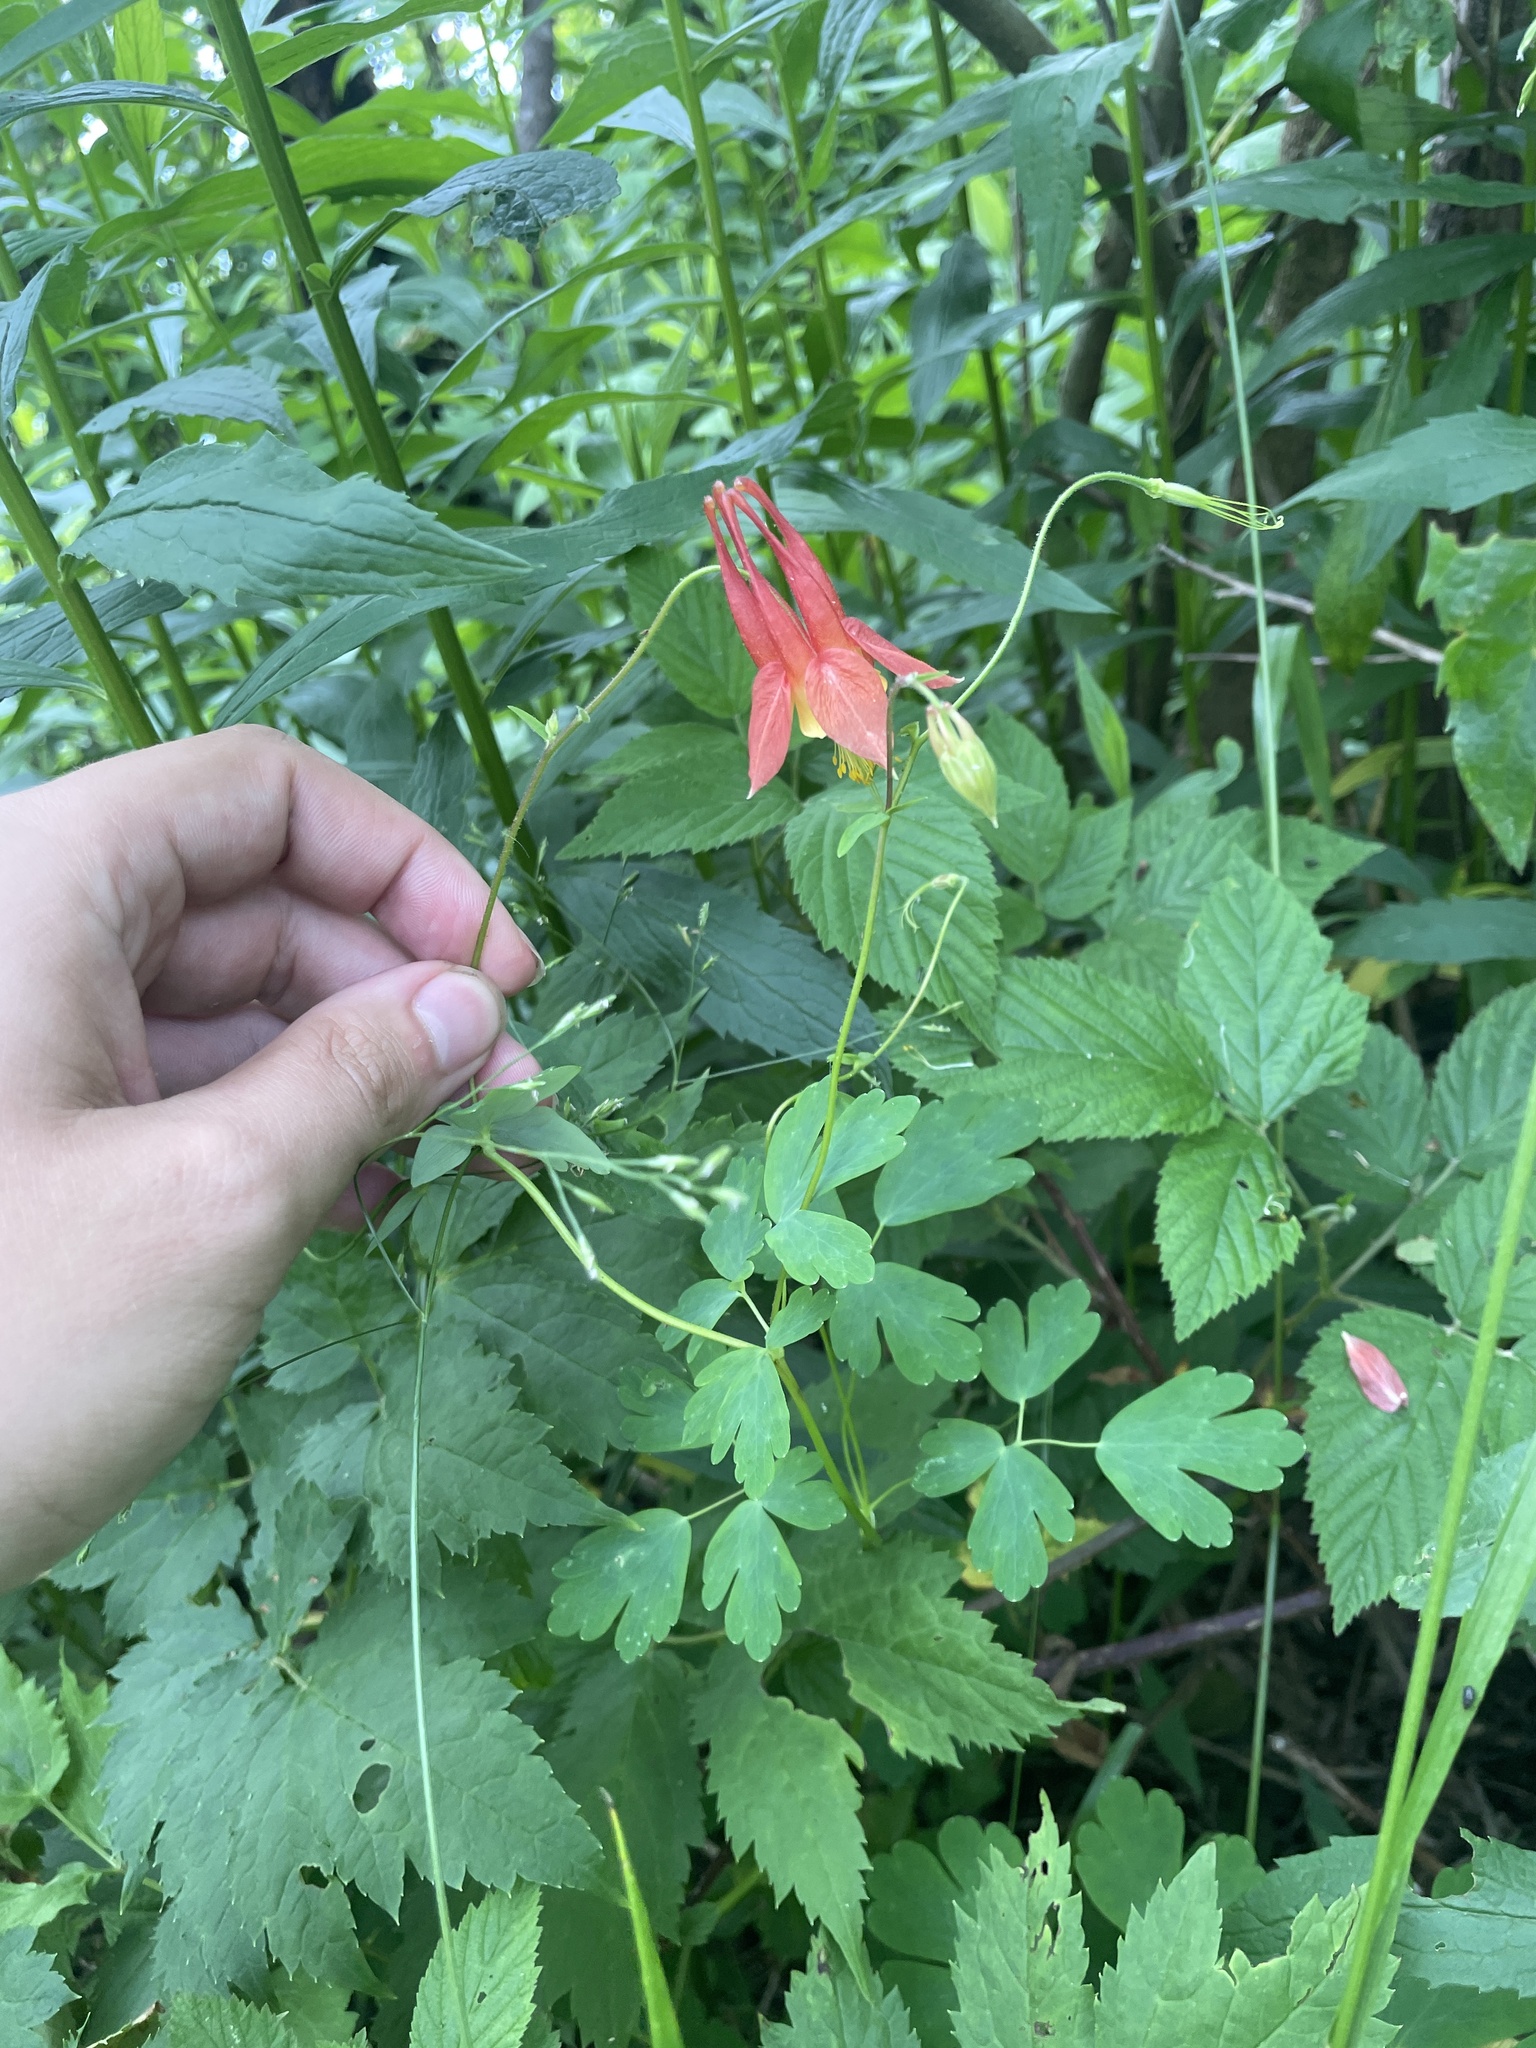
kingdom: Plantae
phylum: Tracheophyta
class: Magnoliopsida
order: Ranunculales
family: Ranunculaceae
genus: Aquilegia
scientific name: Aquilegia canadensis
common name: American columbine
